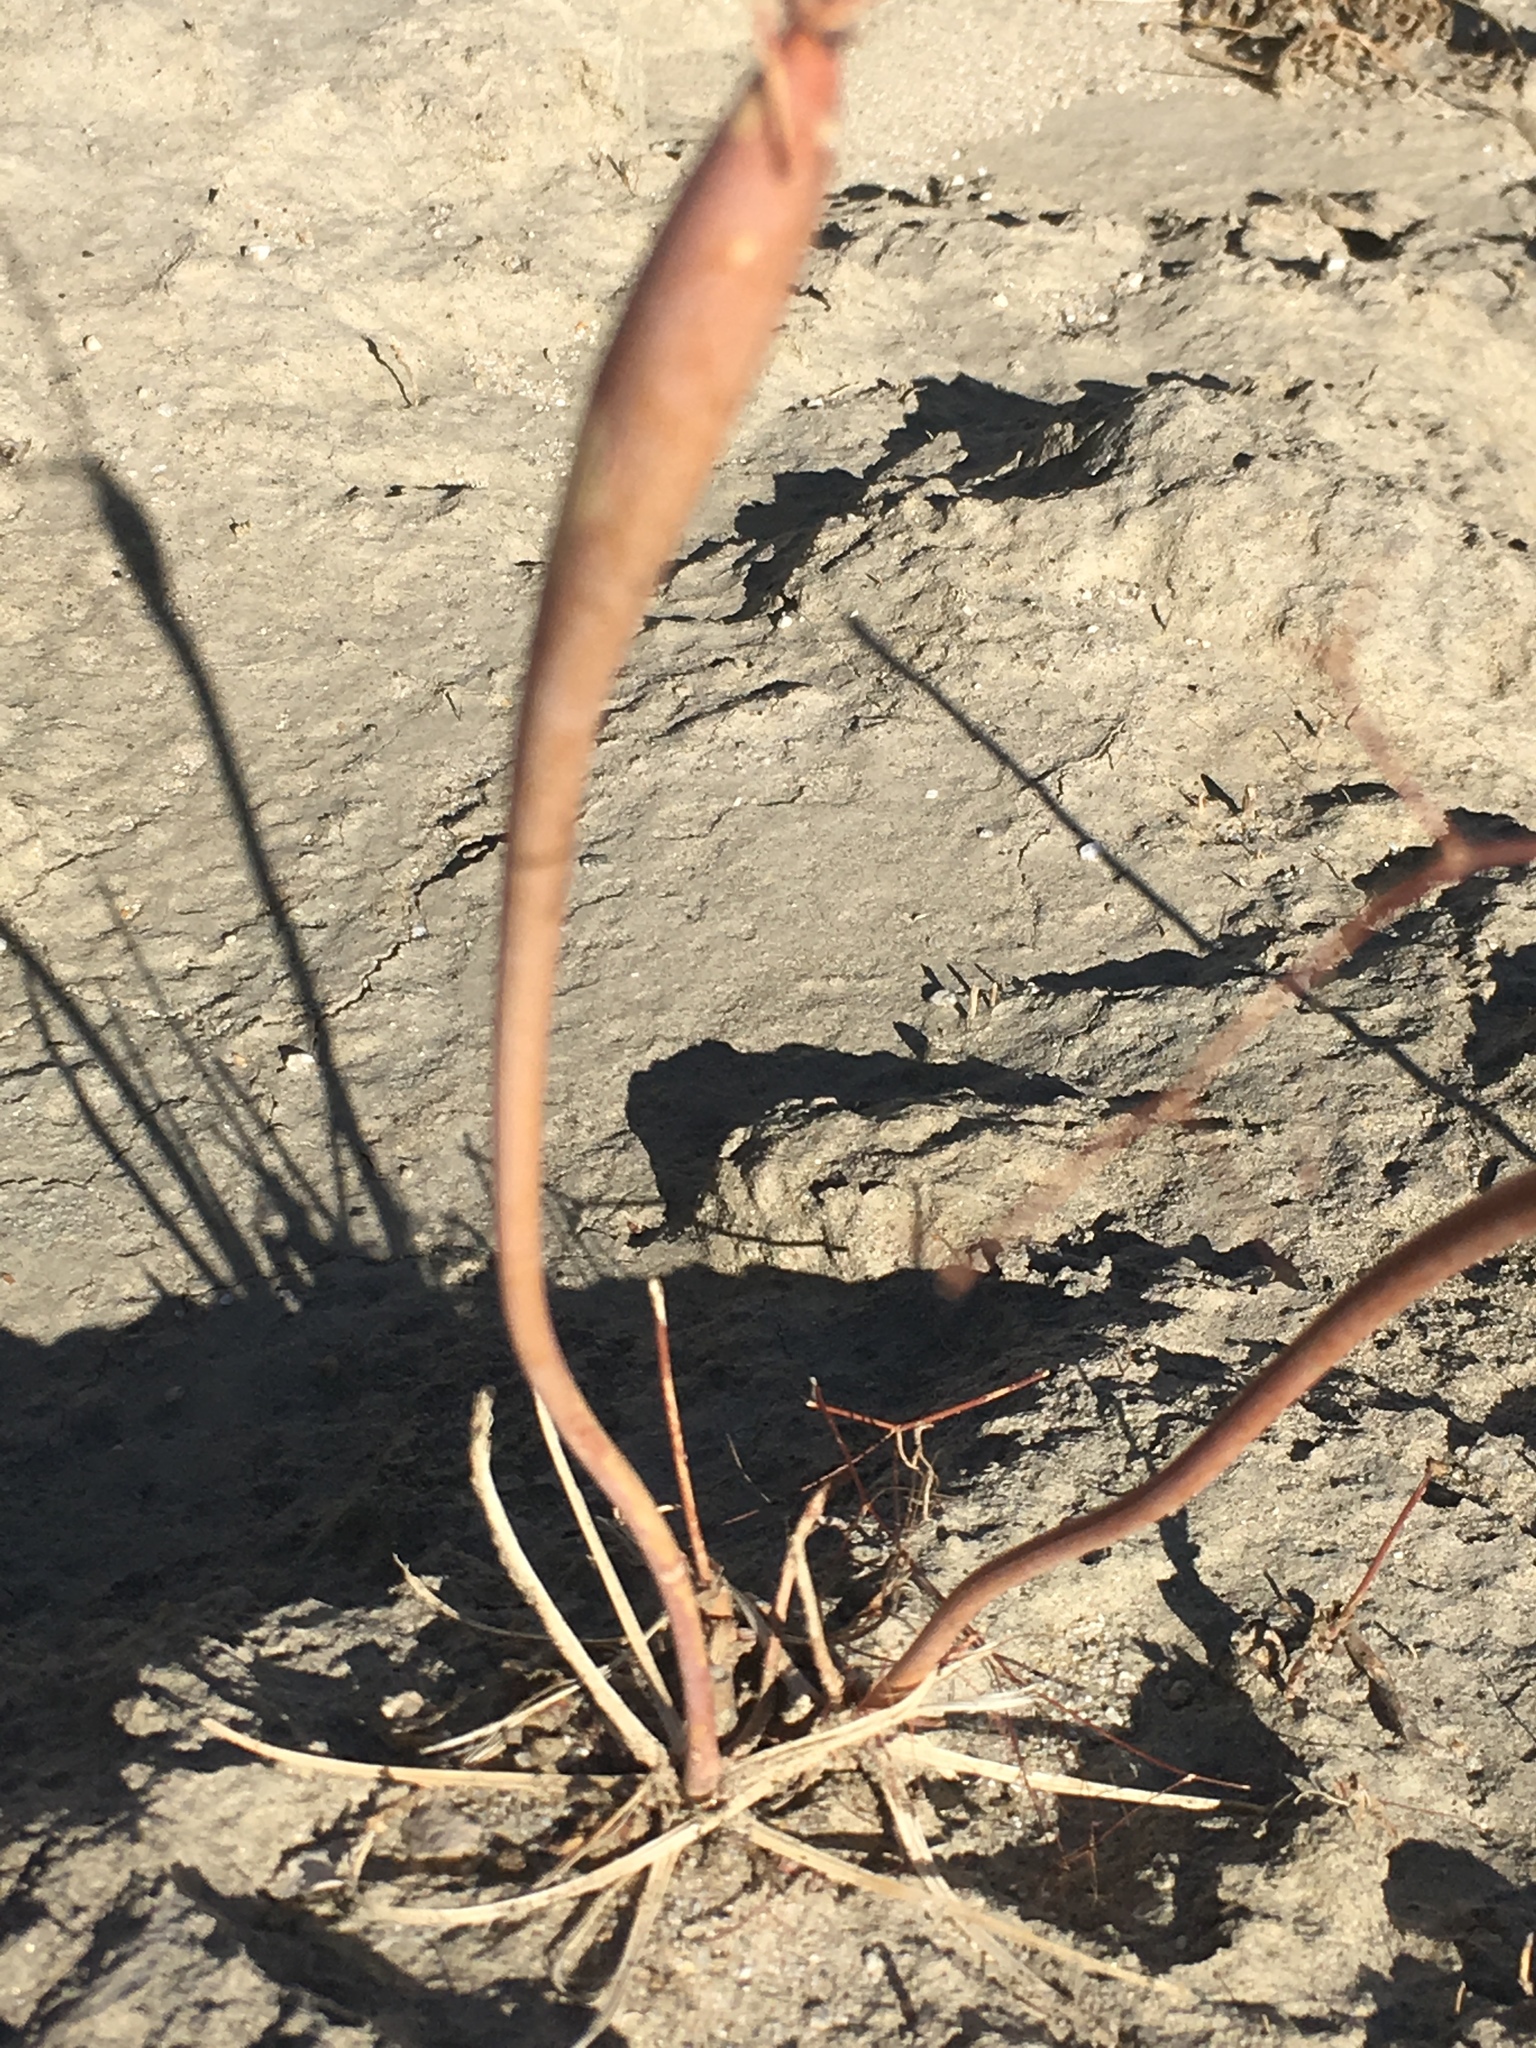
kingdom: Plantae
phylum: Tracheophyta
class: Magnoliopsida
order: Caryophyllales
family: Polygonaceae
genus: Eriogonum
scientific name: Eriogonum trichopes
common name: Little desert trumpet
